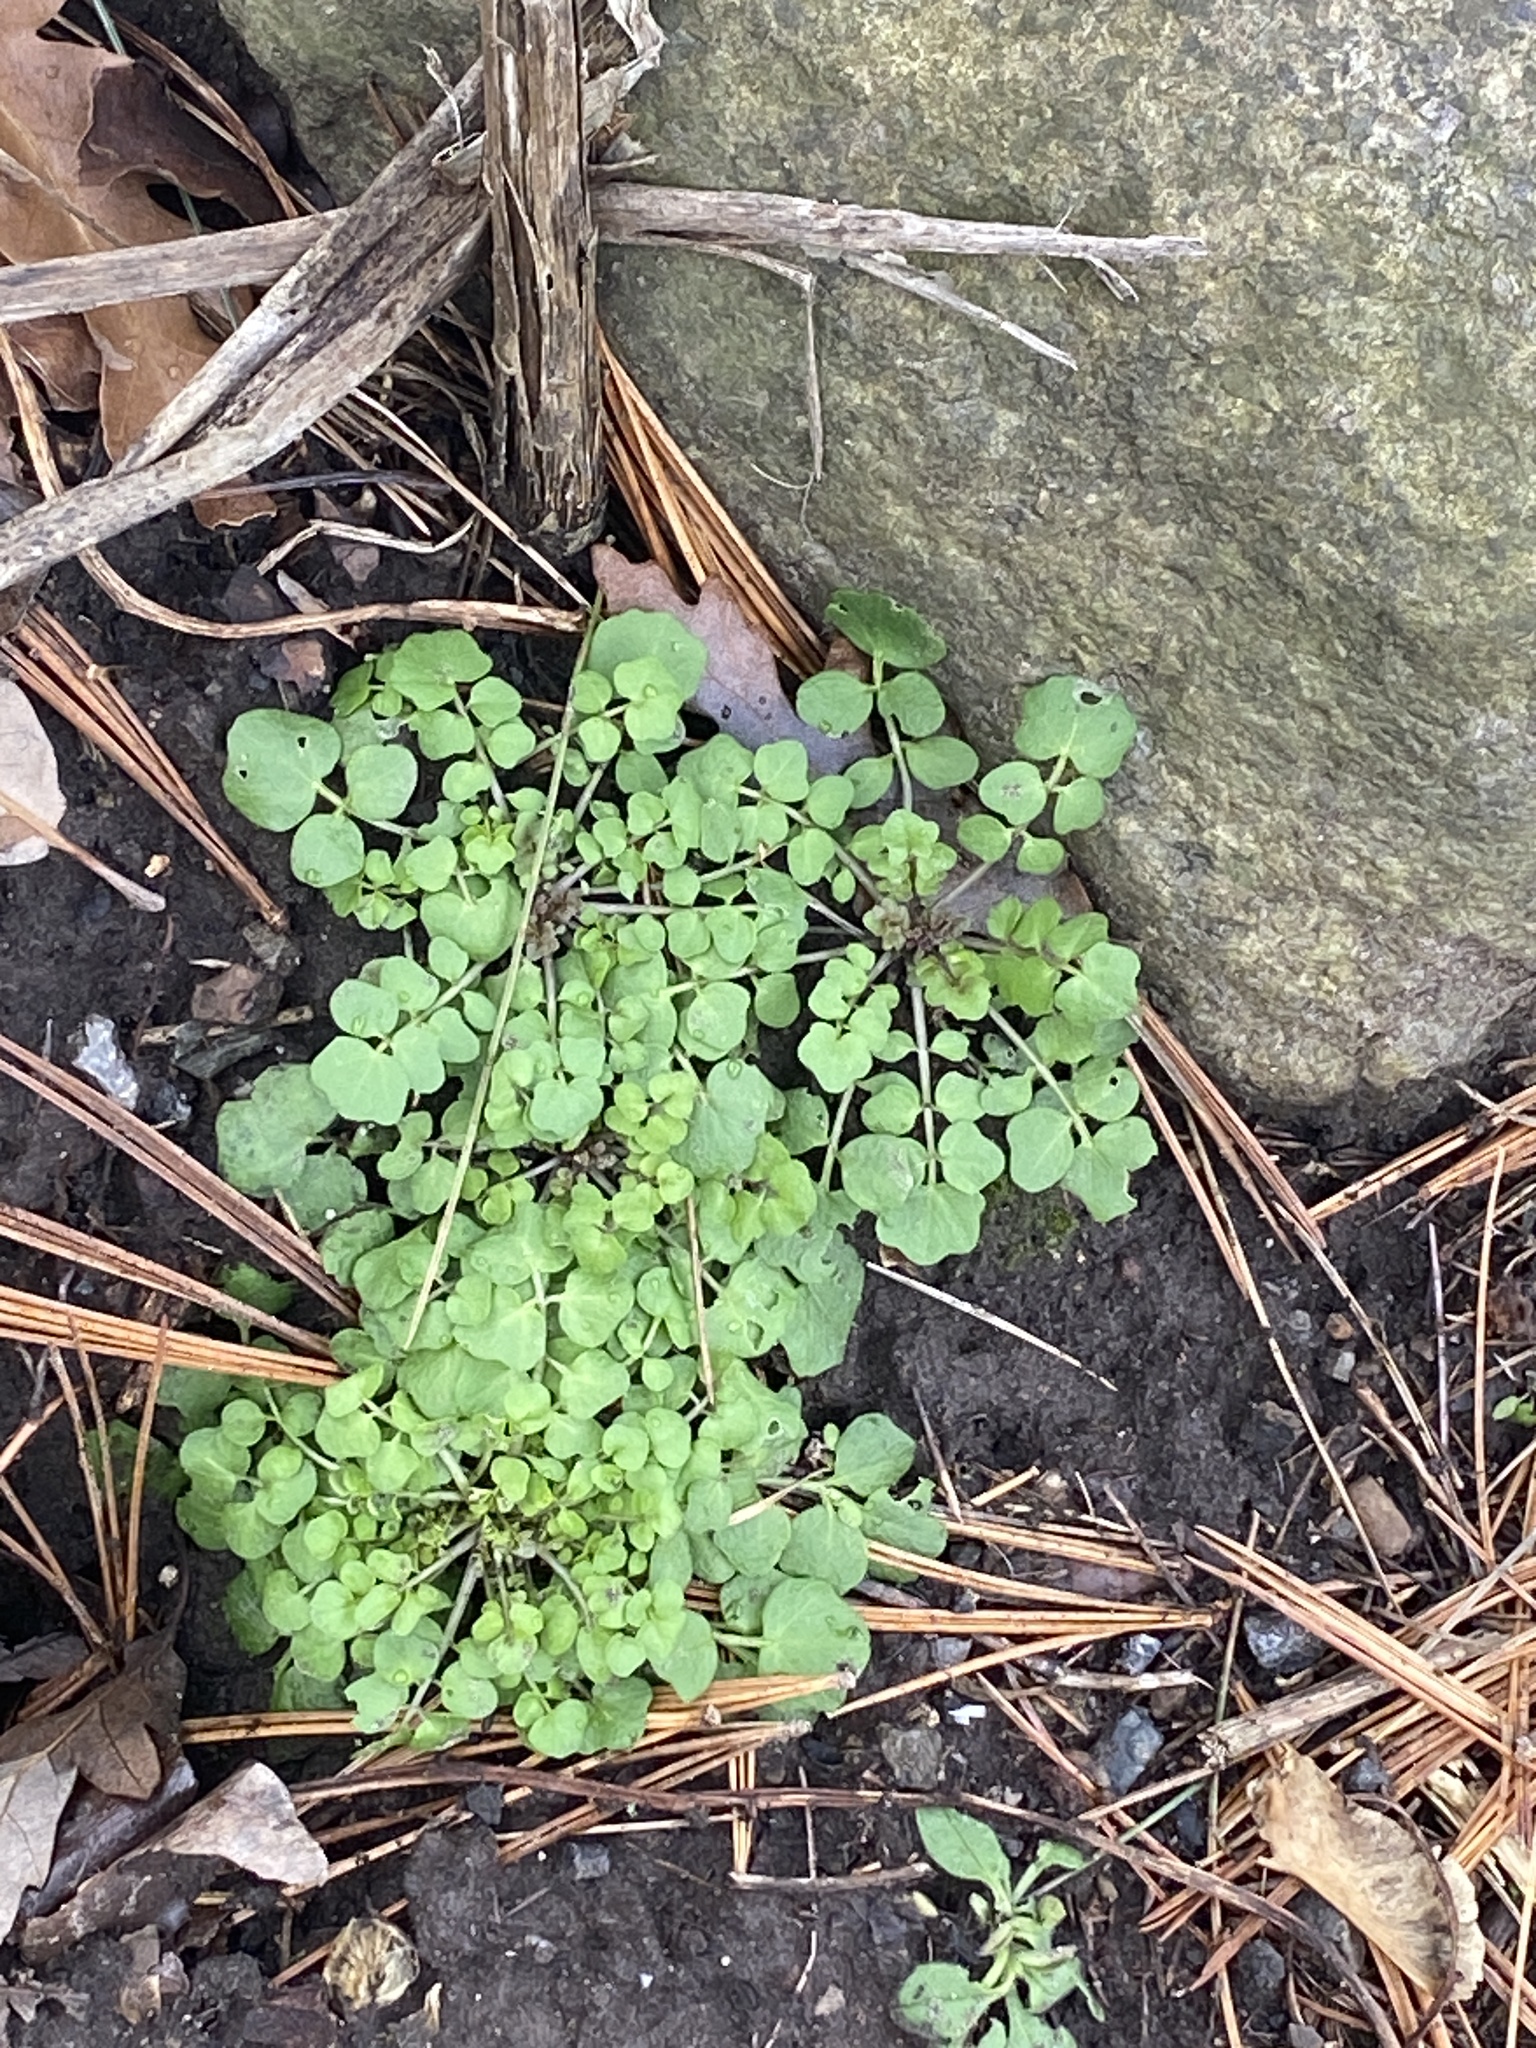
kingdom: Plantae
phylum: Tracheophyta
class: Magnoliopsida
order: Brassicales
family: Brassicaceae
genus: Cardamine
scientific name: Cardamine hirsuta
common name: Hairy bittercress
